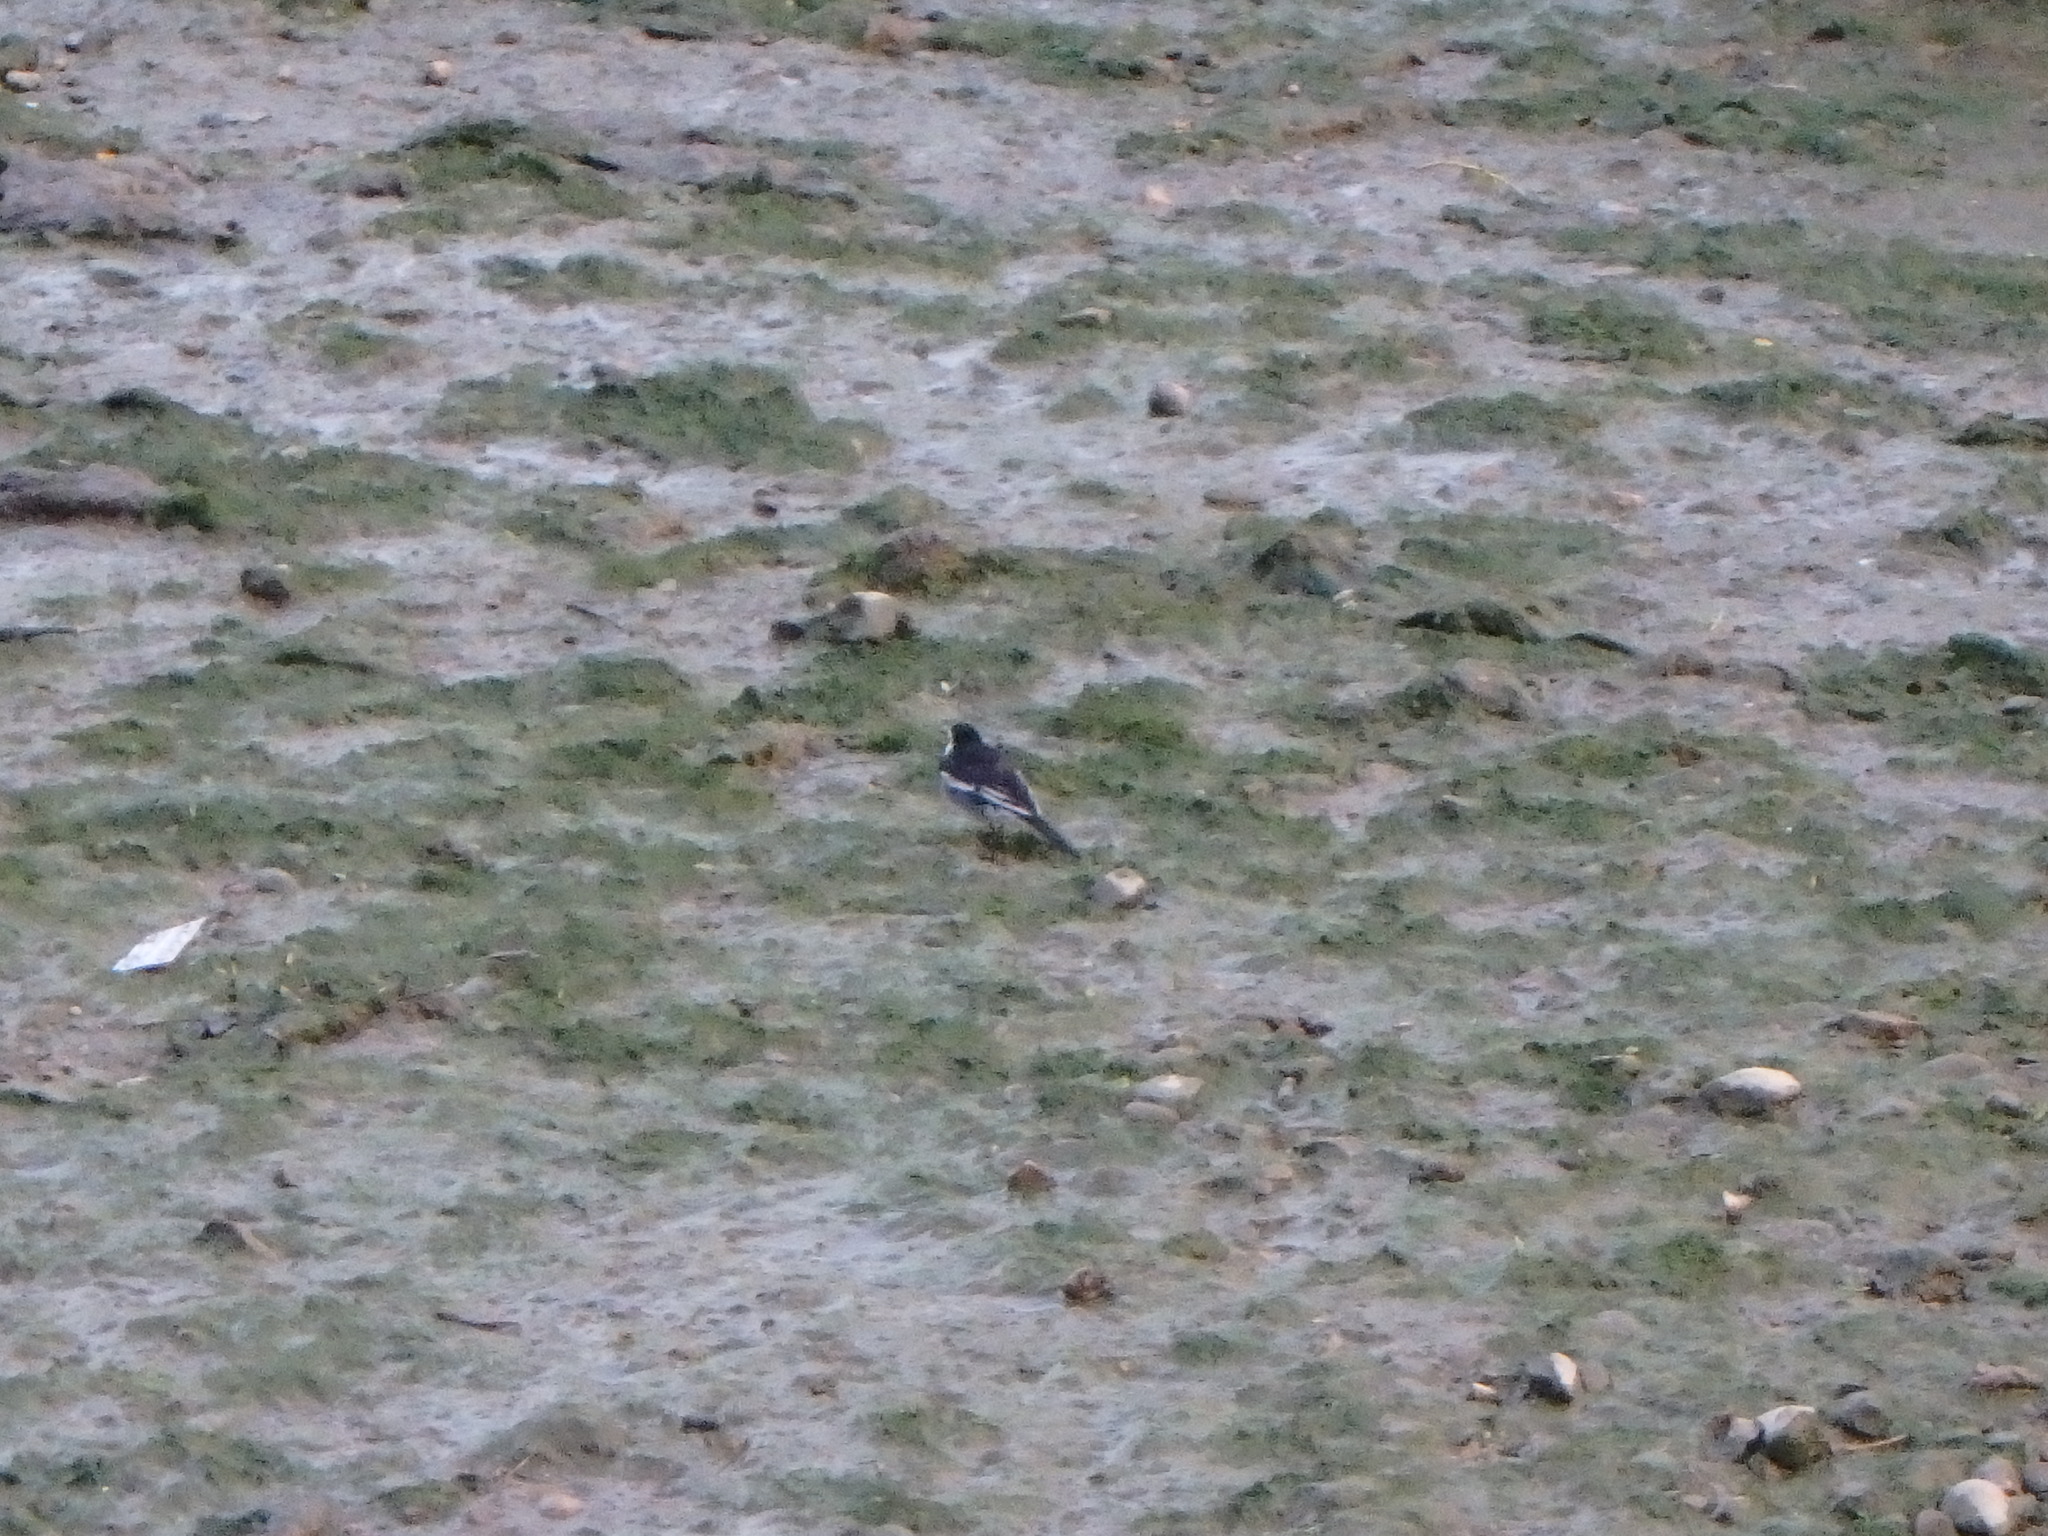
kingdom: Animalia
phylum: Chordata
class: Aves
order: Passeriformes
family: Motacillidae
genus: Motacilla
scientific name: Motacilla alba
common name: White wagtail
